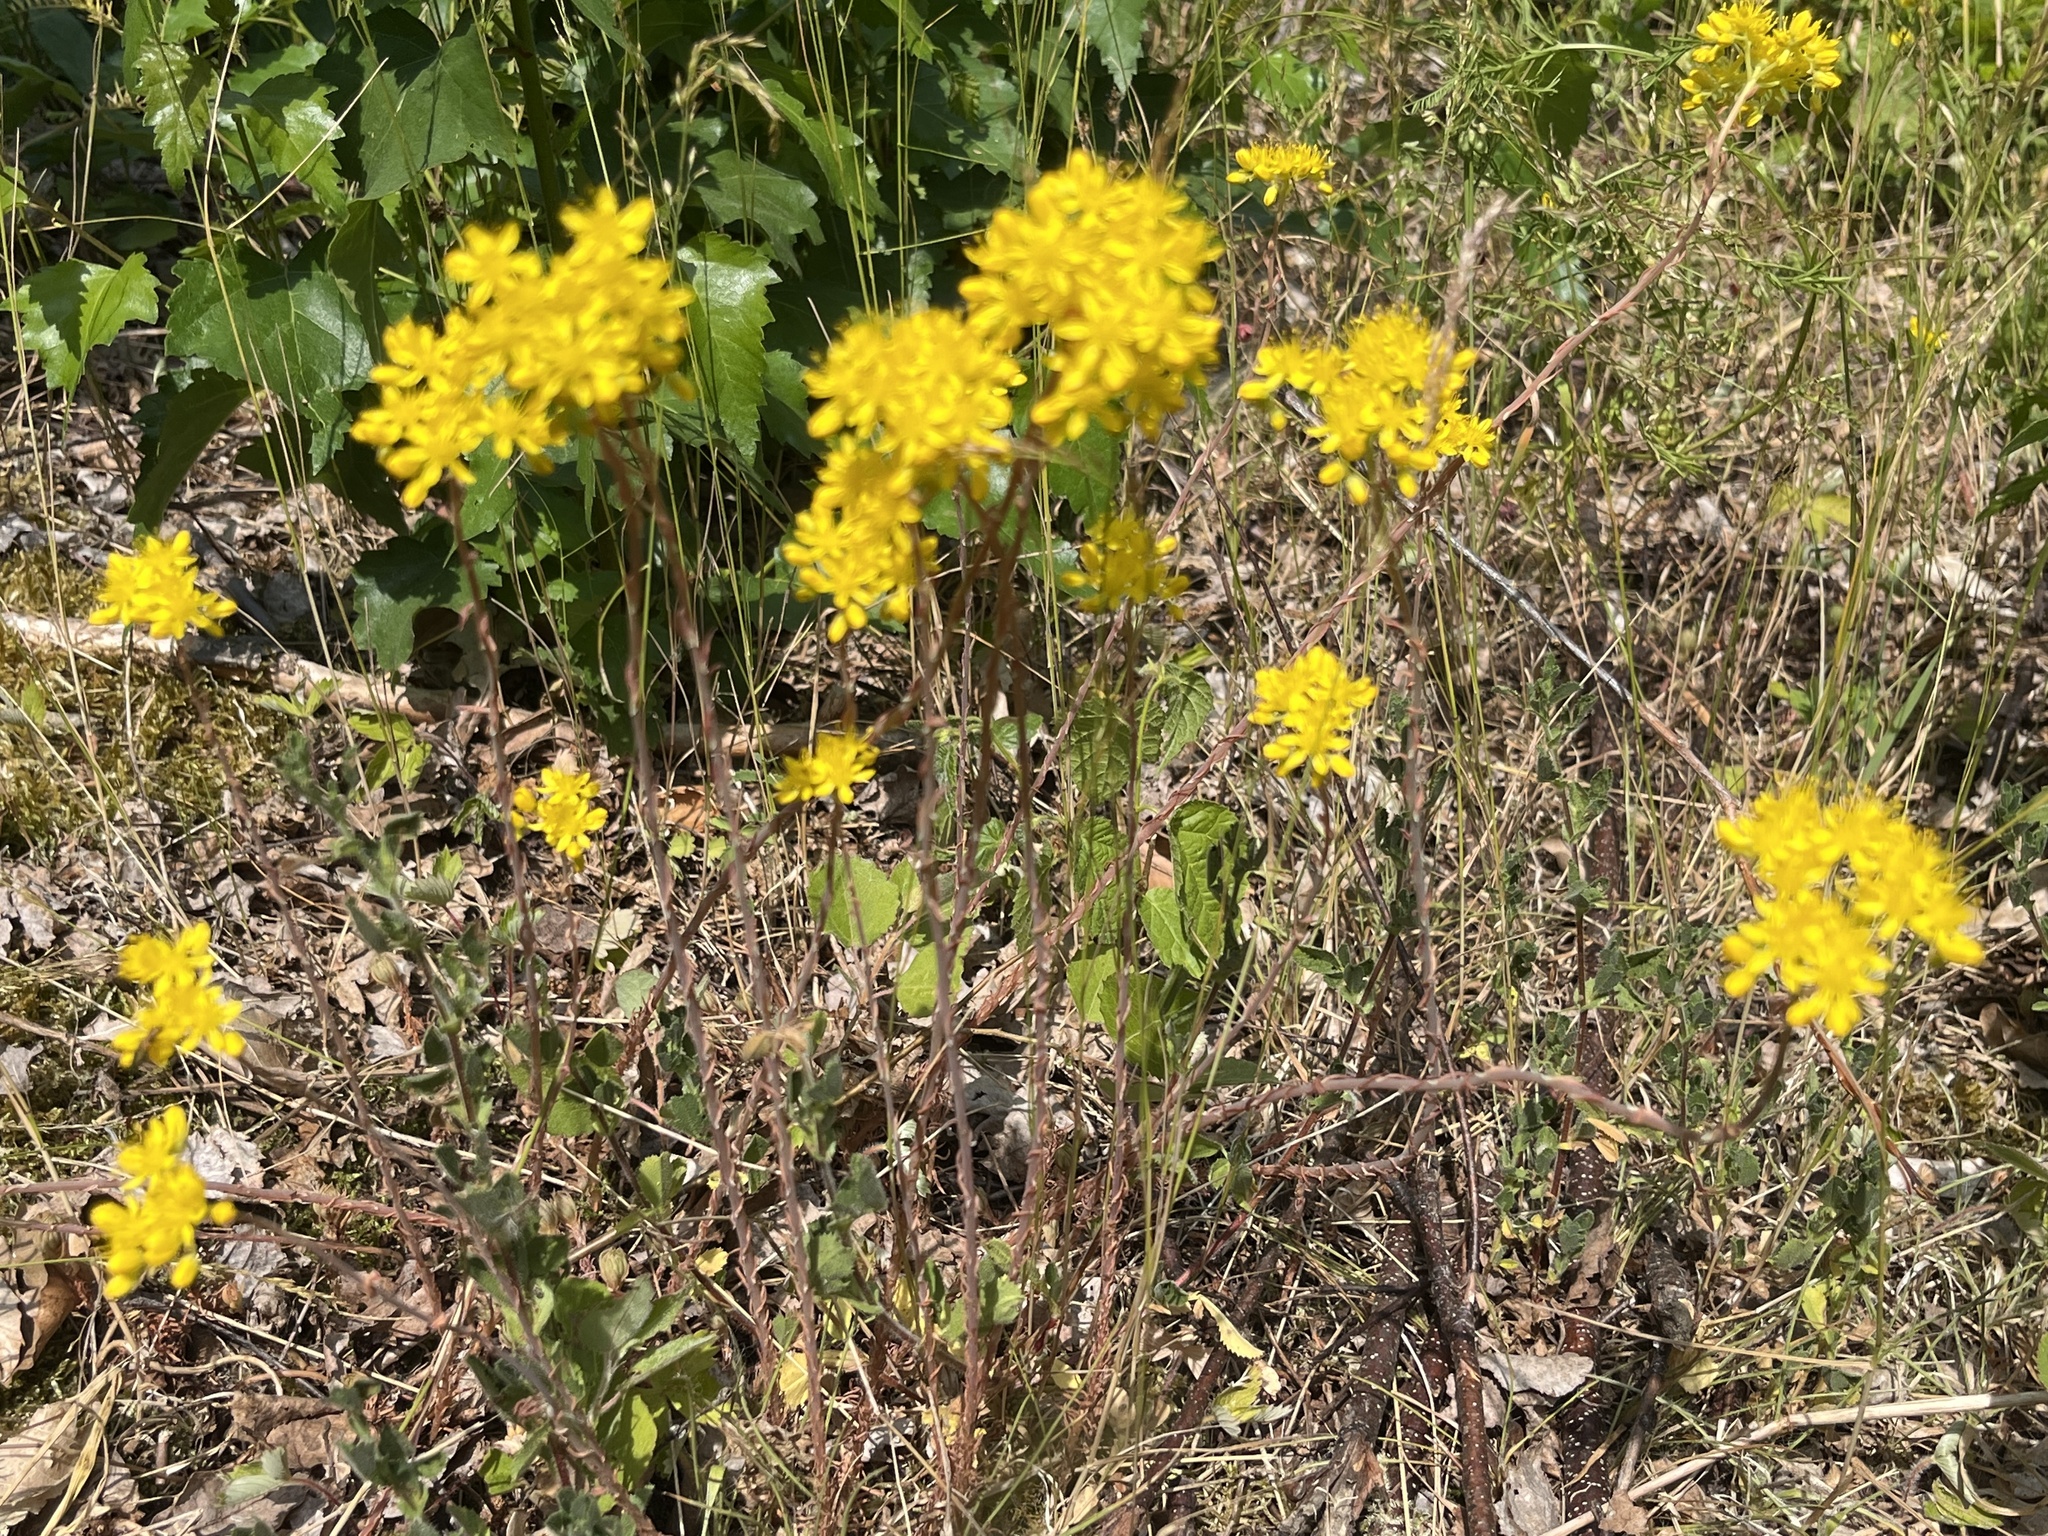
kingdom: Plantae
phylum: Tracheophyta
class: Magnoliopsida
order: Saxifragales
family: Crassulaceae
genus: Petrosedum
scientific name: Petrosedum forsterianum
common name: Forster's stonecrop
